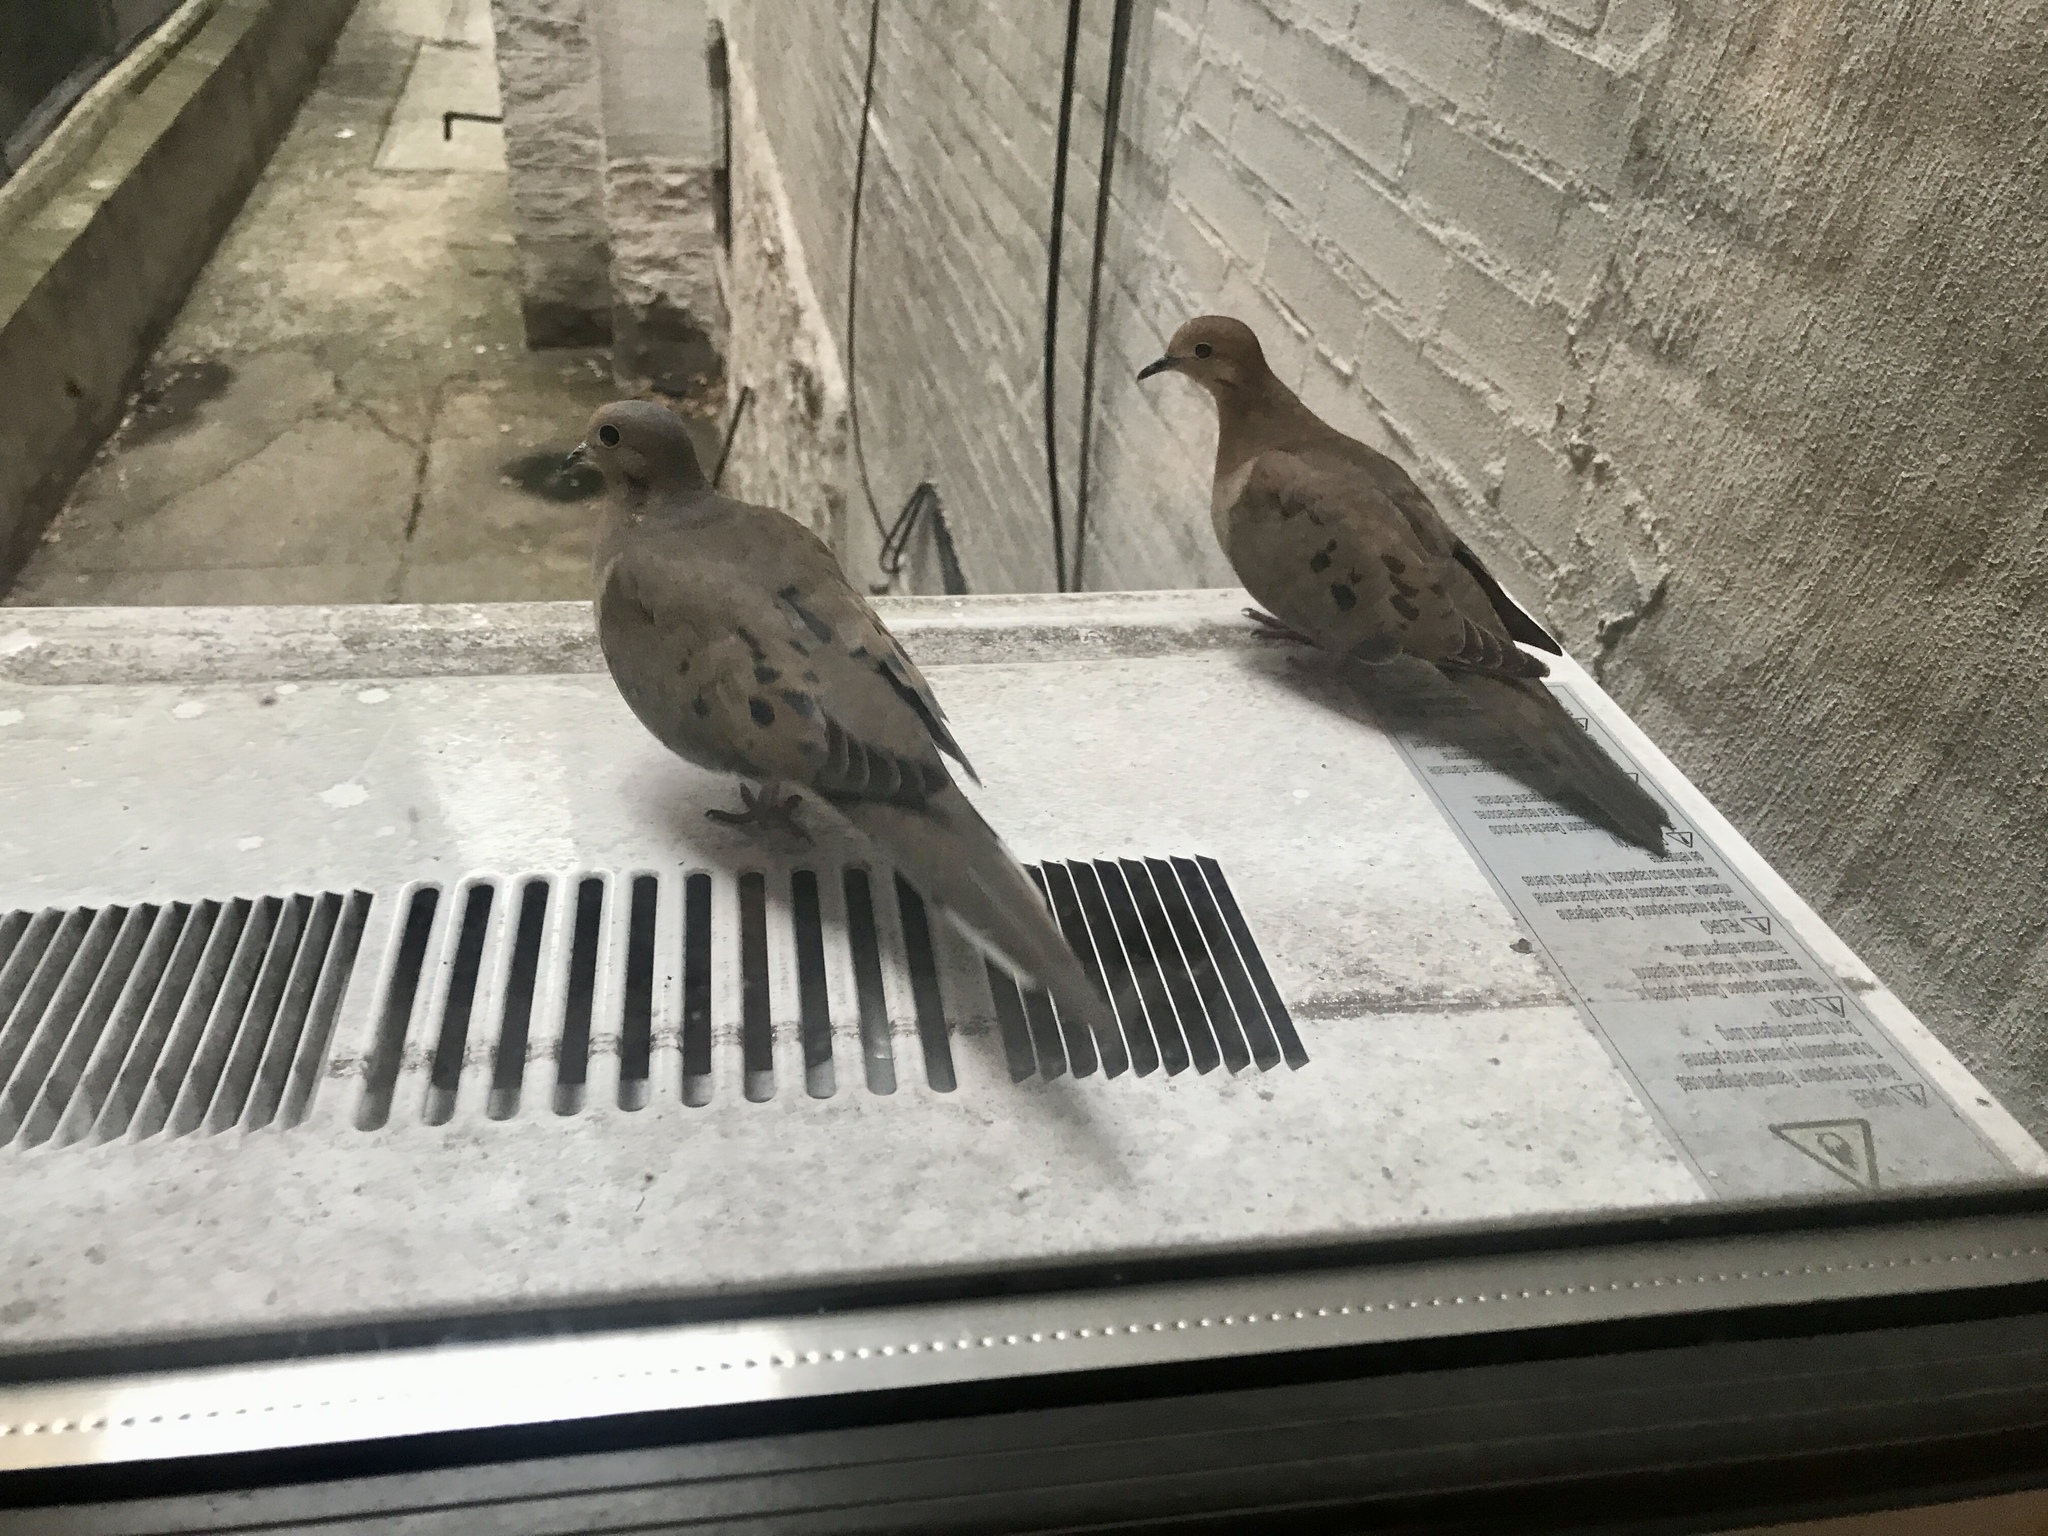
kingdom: Animalia
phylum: Chordata
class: Aves
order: Columbiformes
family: Columbidae
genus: Zenaida
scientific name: Zenaida macroura
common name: Mourning dove
